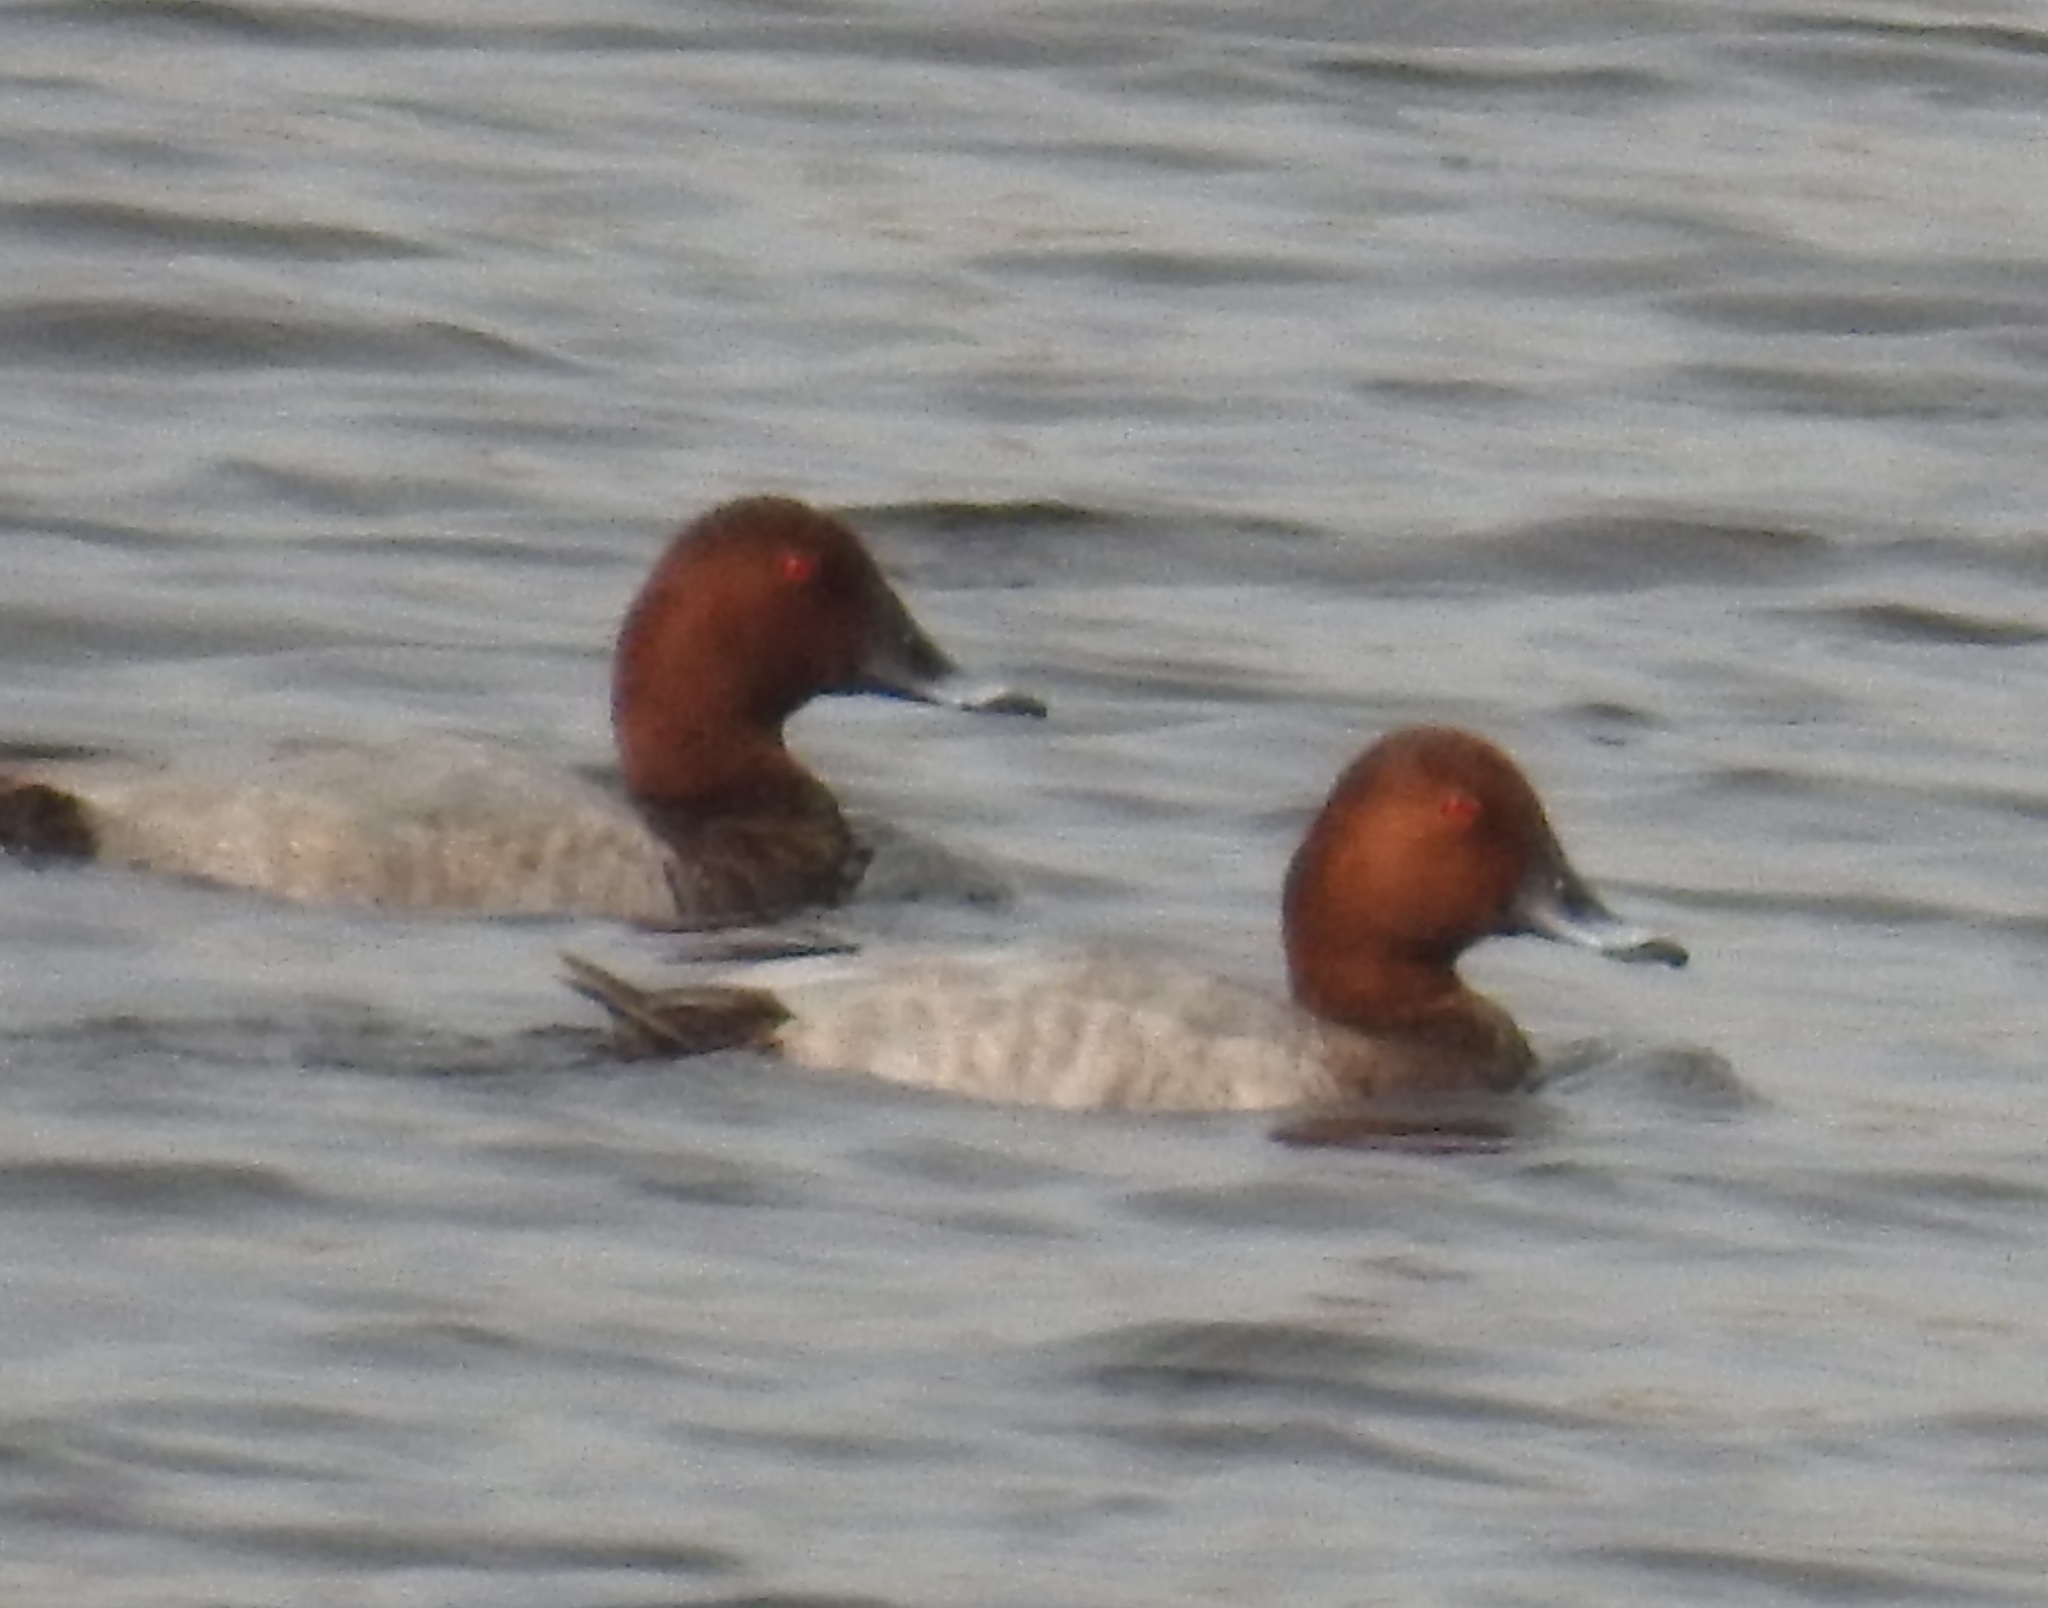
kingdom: Animalia
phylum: Chordata
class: Aves
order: Anseriformes
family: Anatidae
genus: Aythya
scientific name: Aythya ferina
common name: Common pochard
